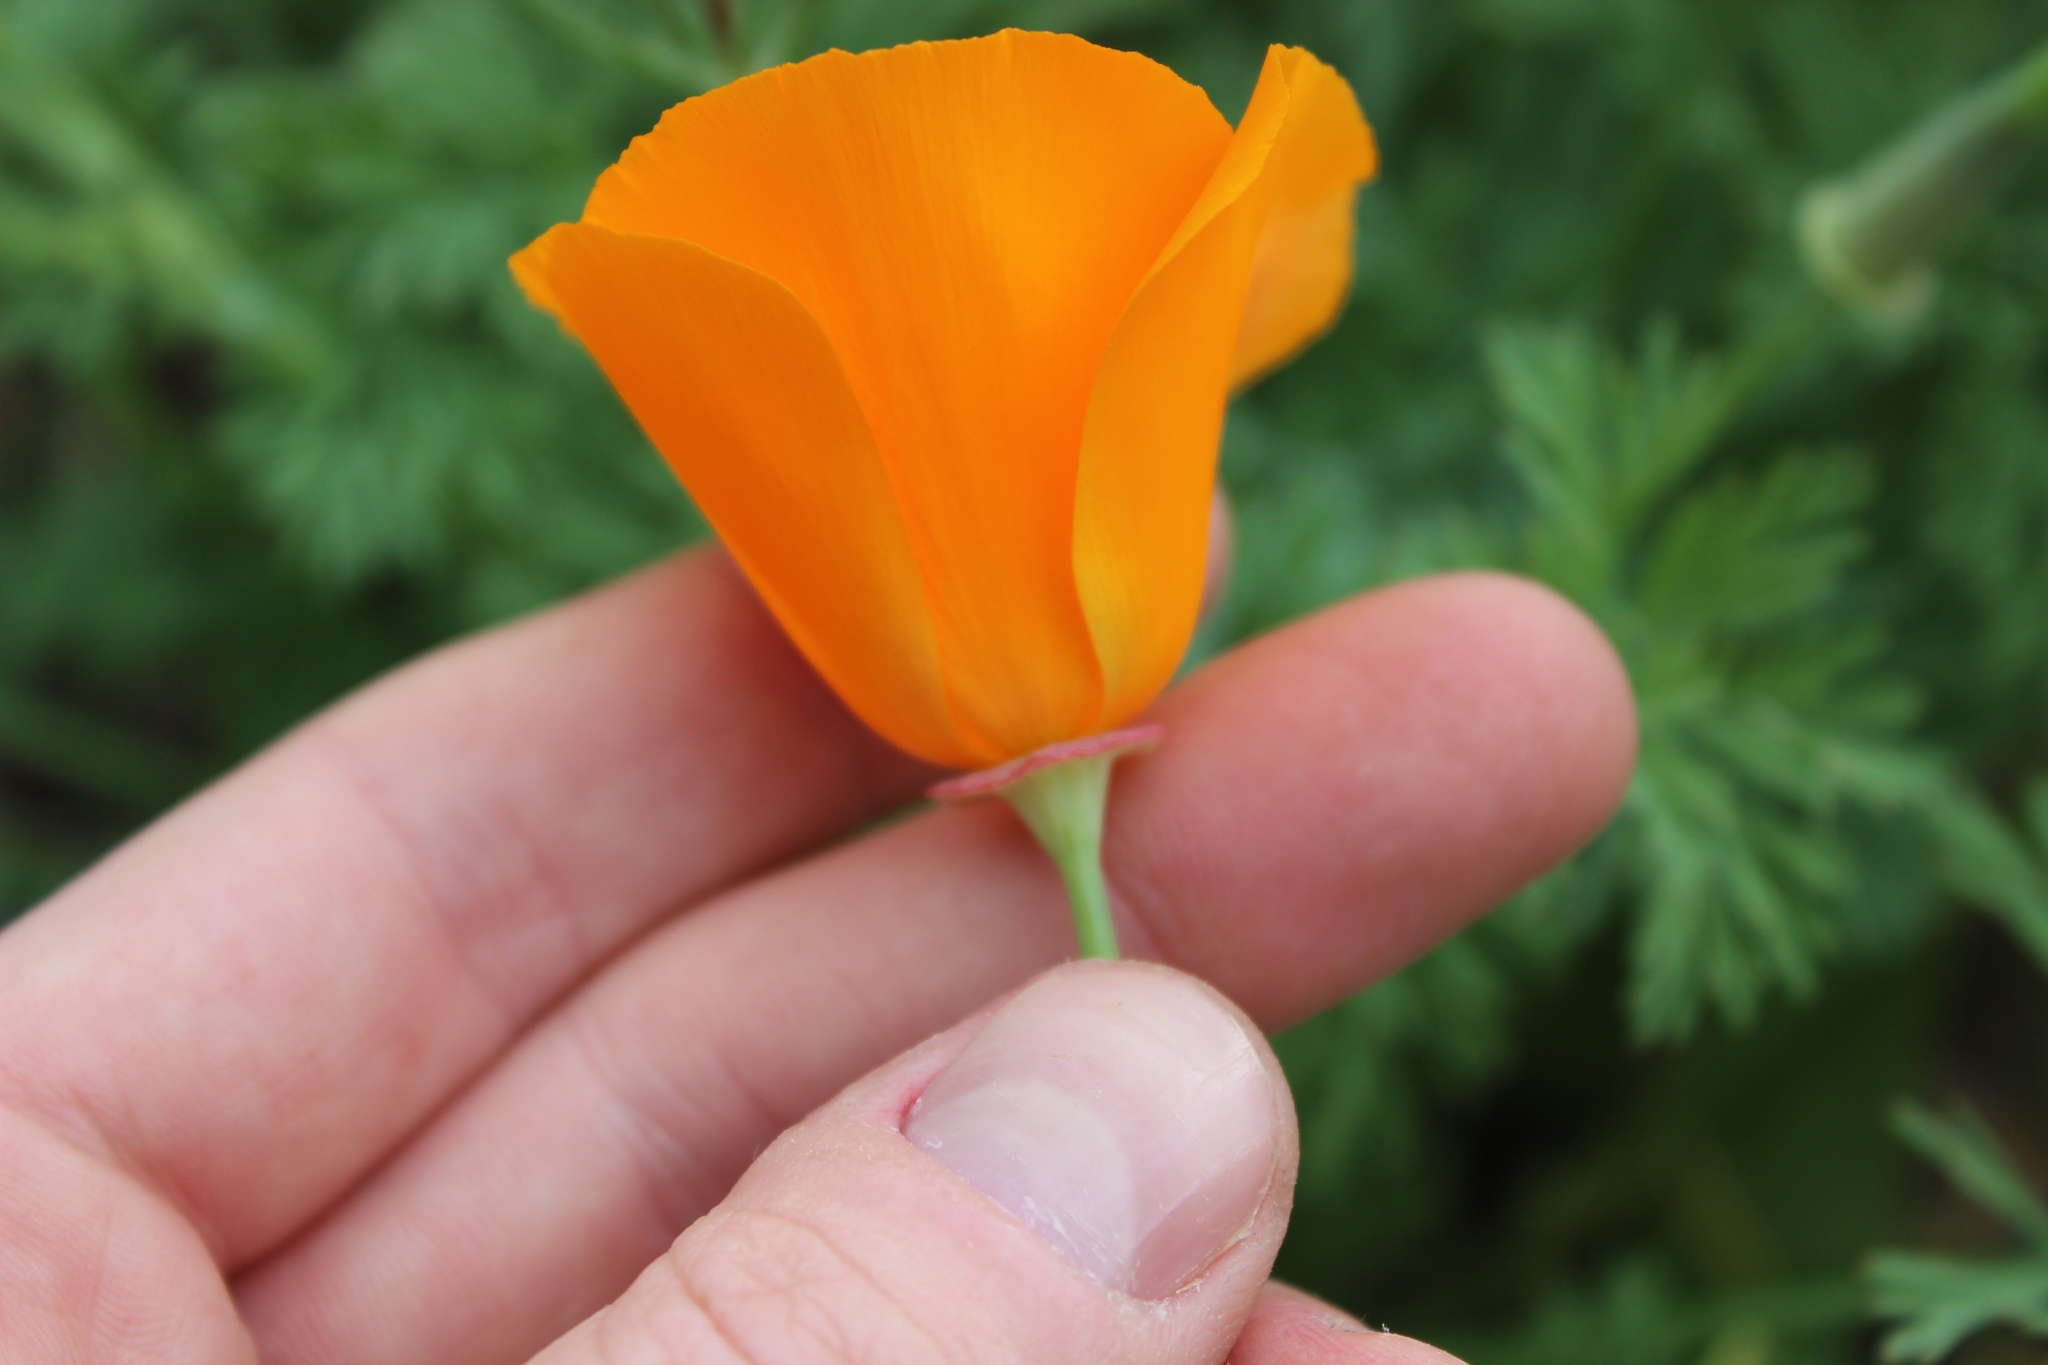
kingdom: Plantae
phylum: Tracheophyta
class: Magnoliopsida
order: Ranunculales
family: Papaveraceae
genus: Eschscholzia
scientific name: Eschscholzia californica
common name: California poppy
